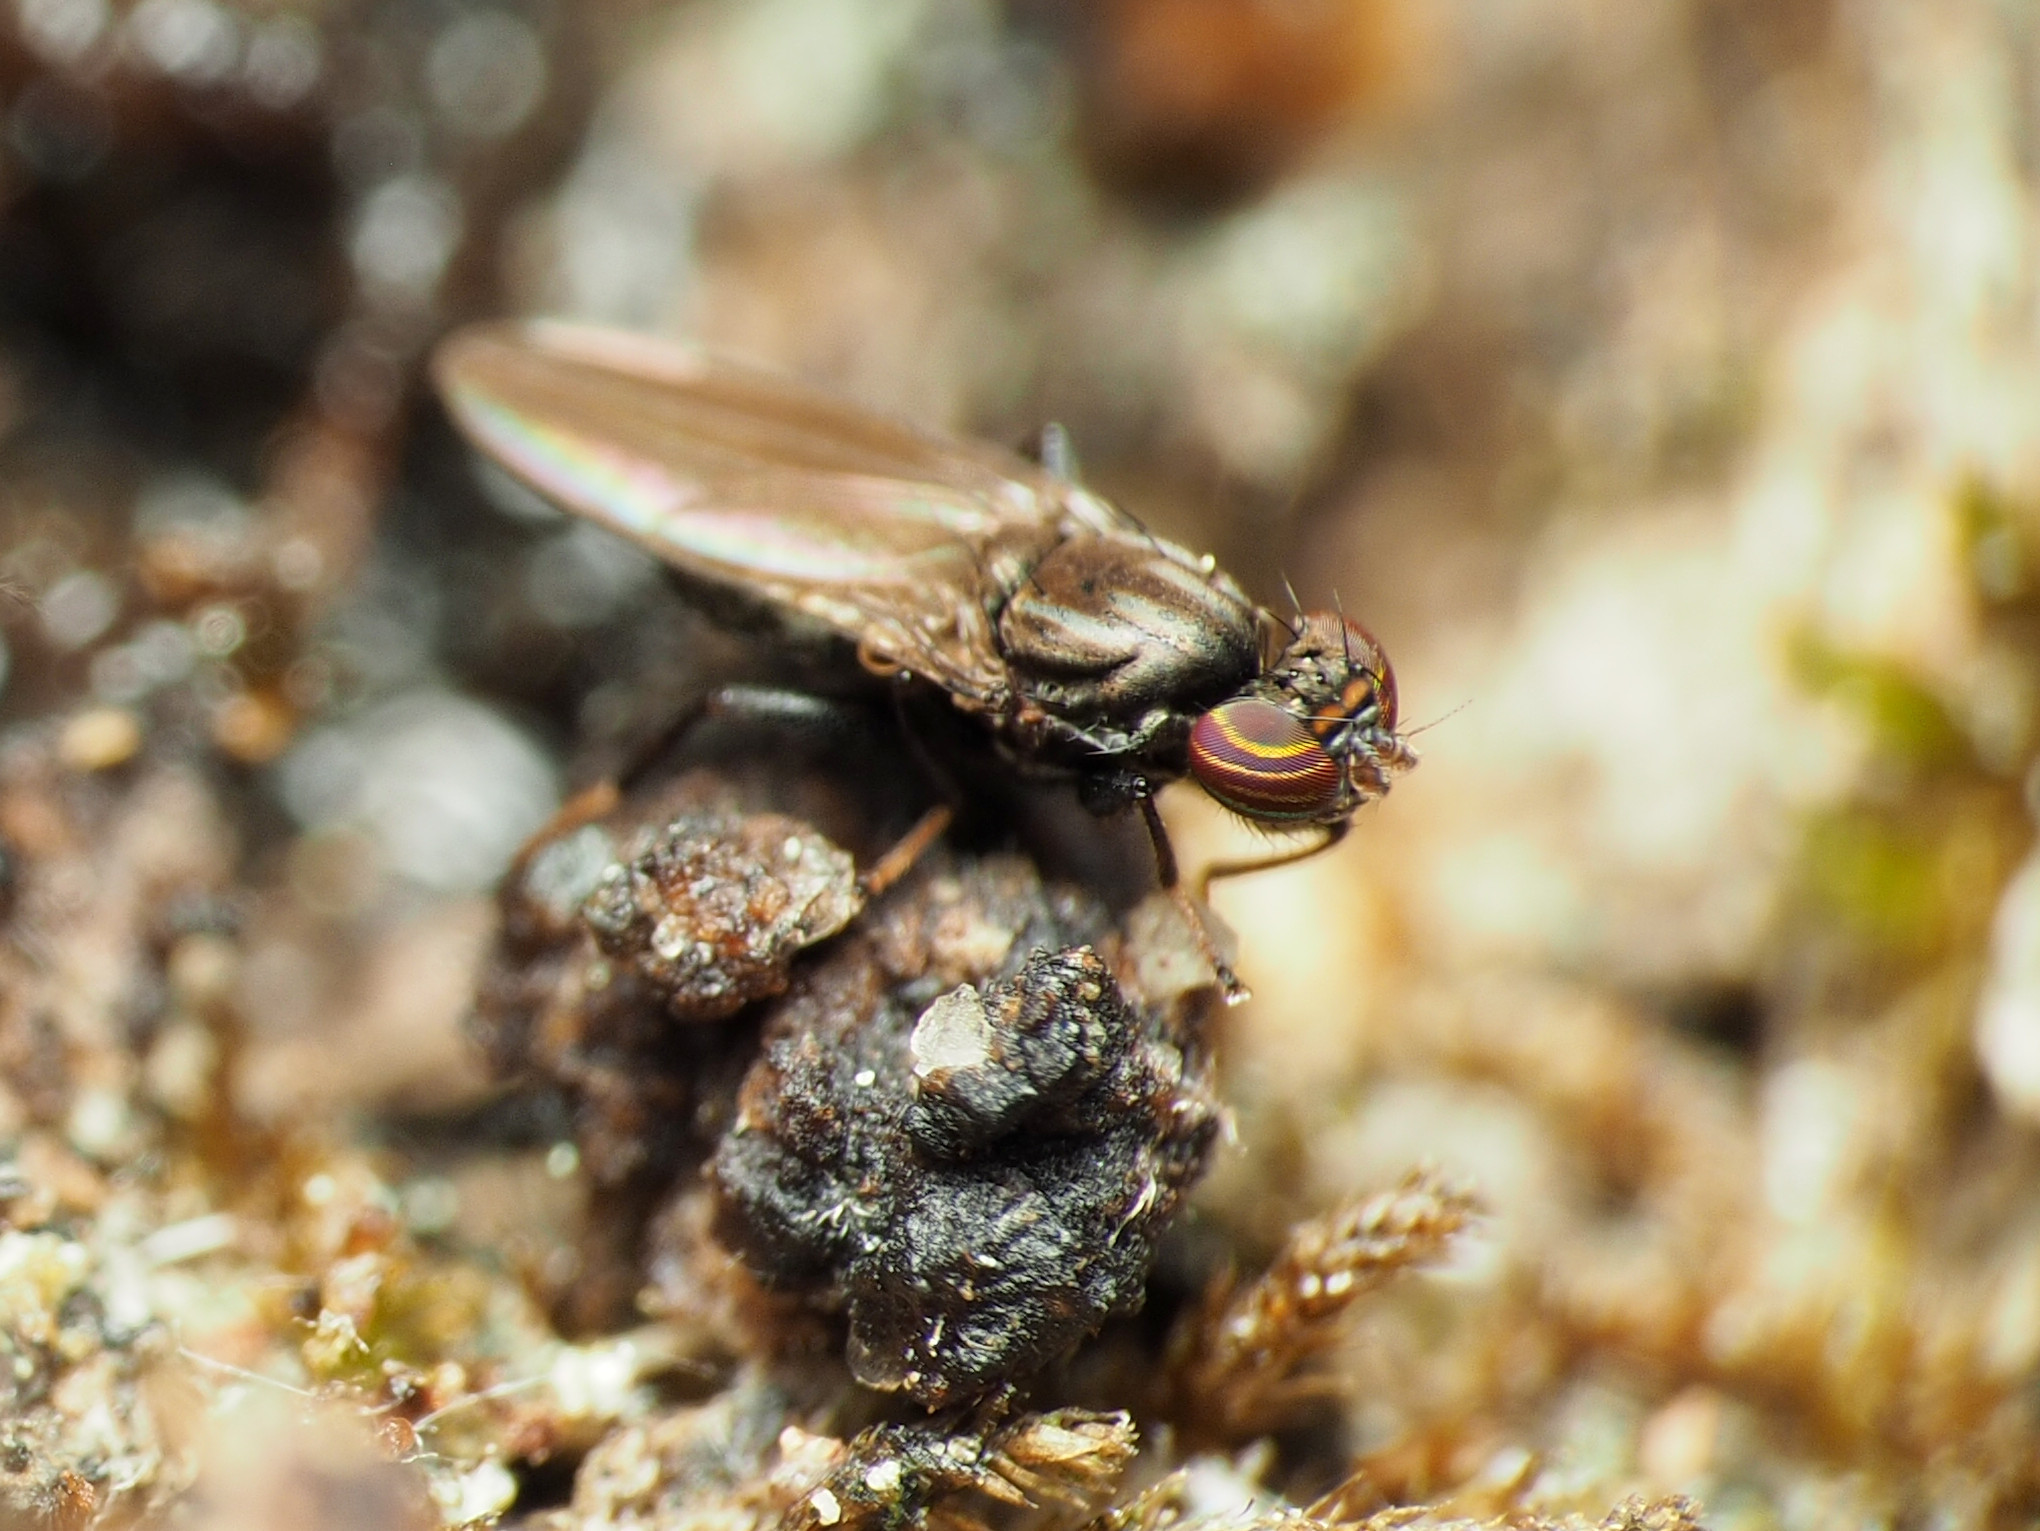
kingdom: Animalia
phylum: Arthropoda
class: Insecta
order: Diptera
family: Aulacigastridae
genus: Aulacigaster
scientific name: Aulacigaster neoleucopeza
